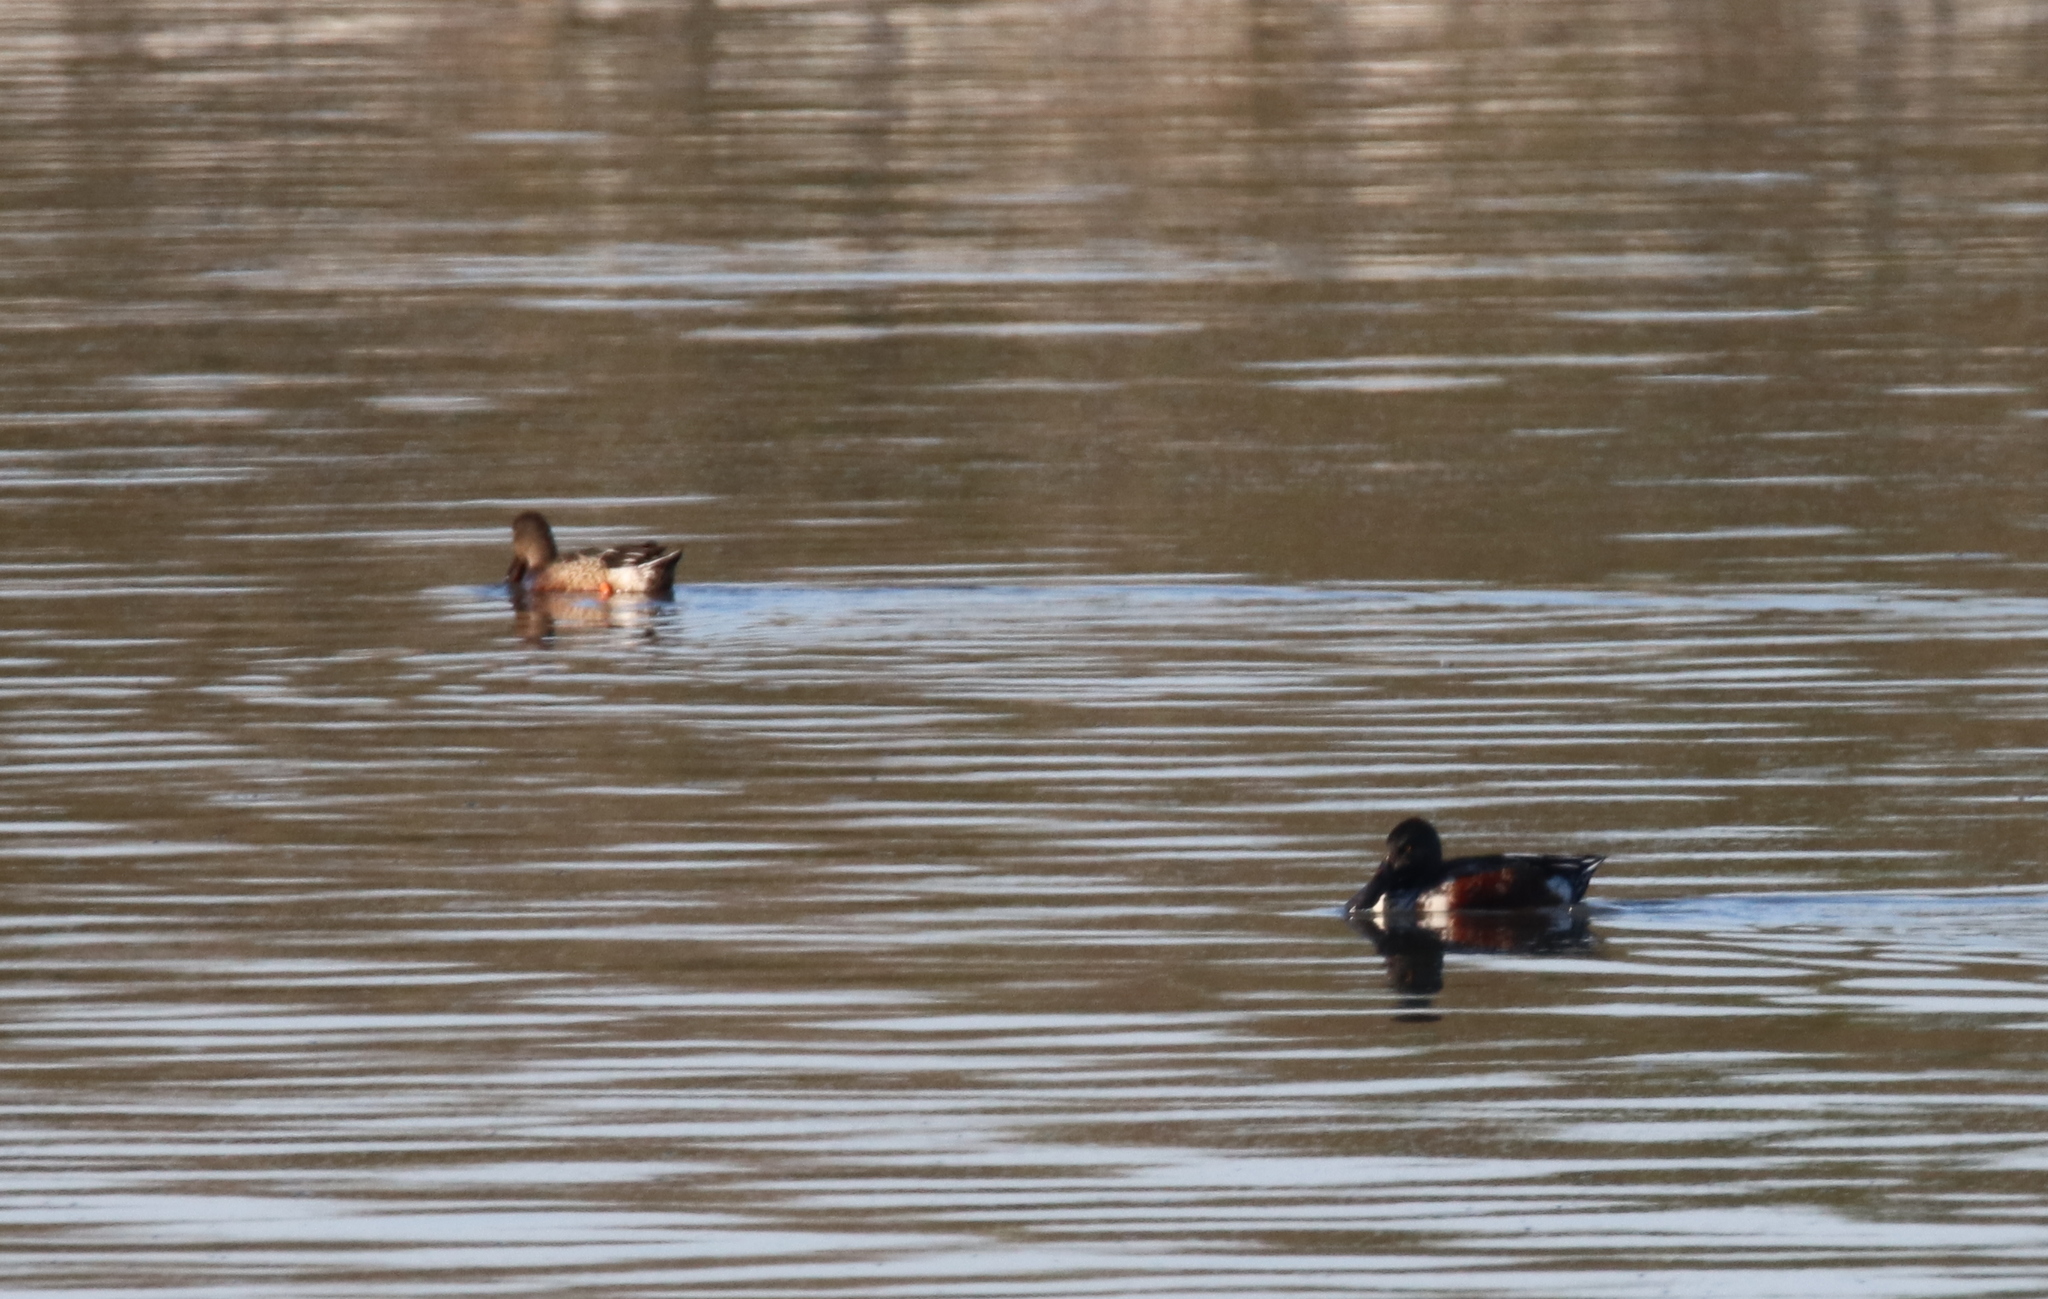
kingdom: Animalia
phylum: Chordata
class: Aves
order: Anseriformes
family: Anatidae
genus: Spatula
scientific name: Spatula clypeata
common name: Northern shoveler
